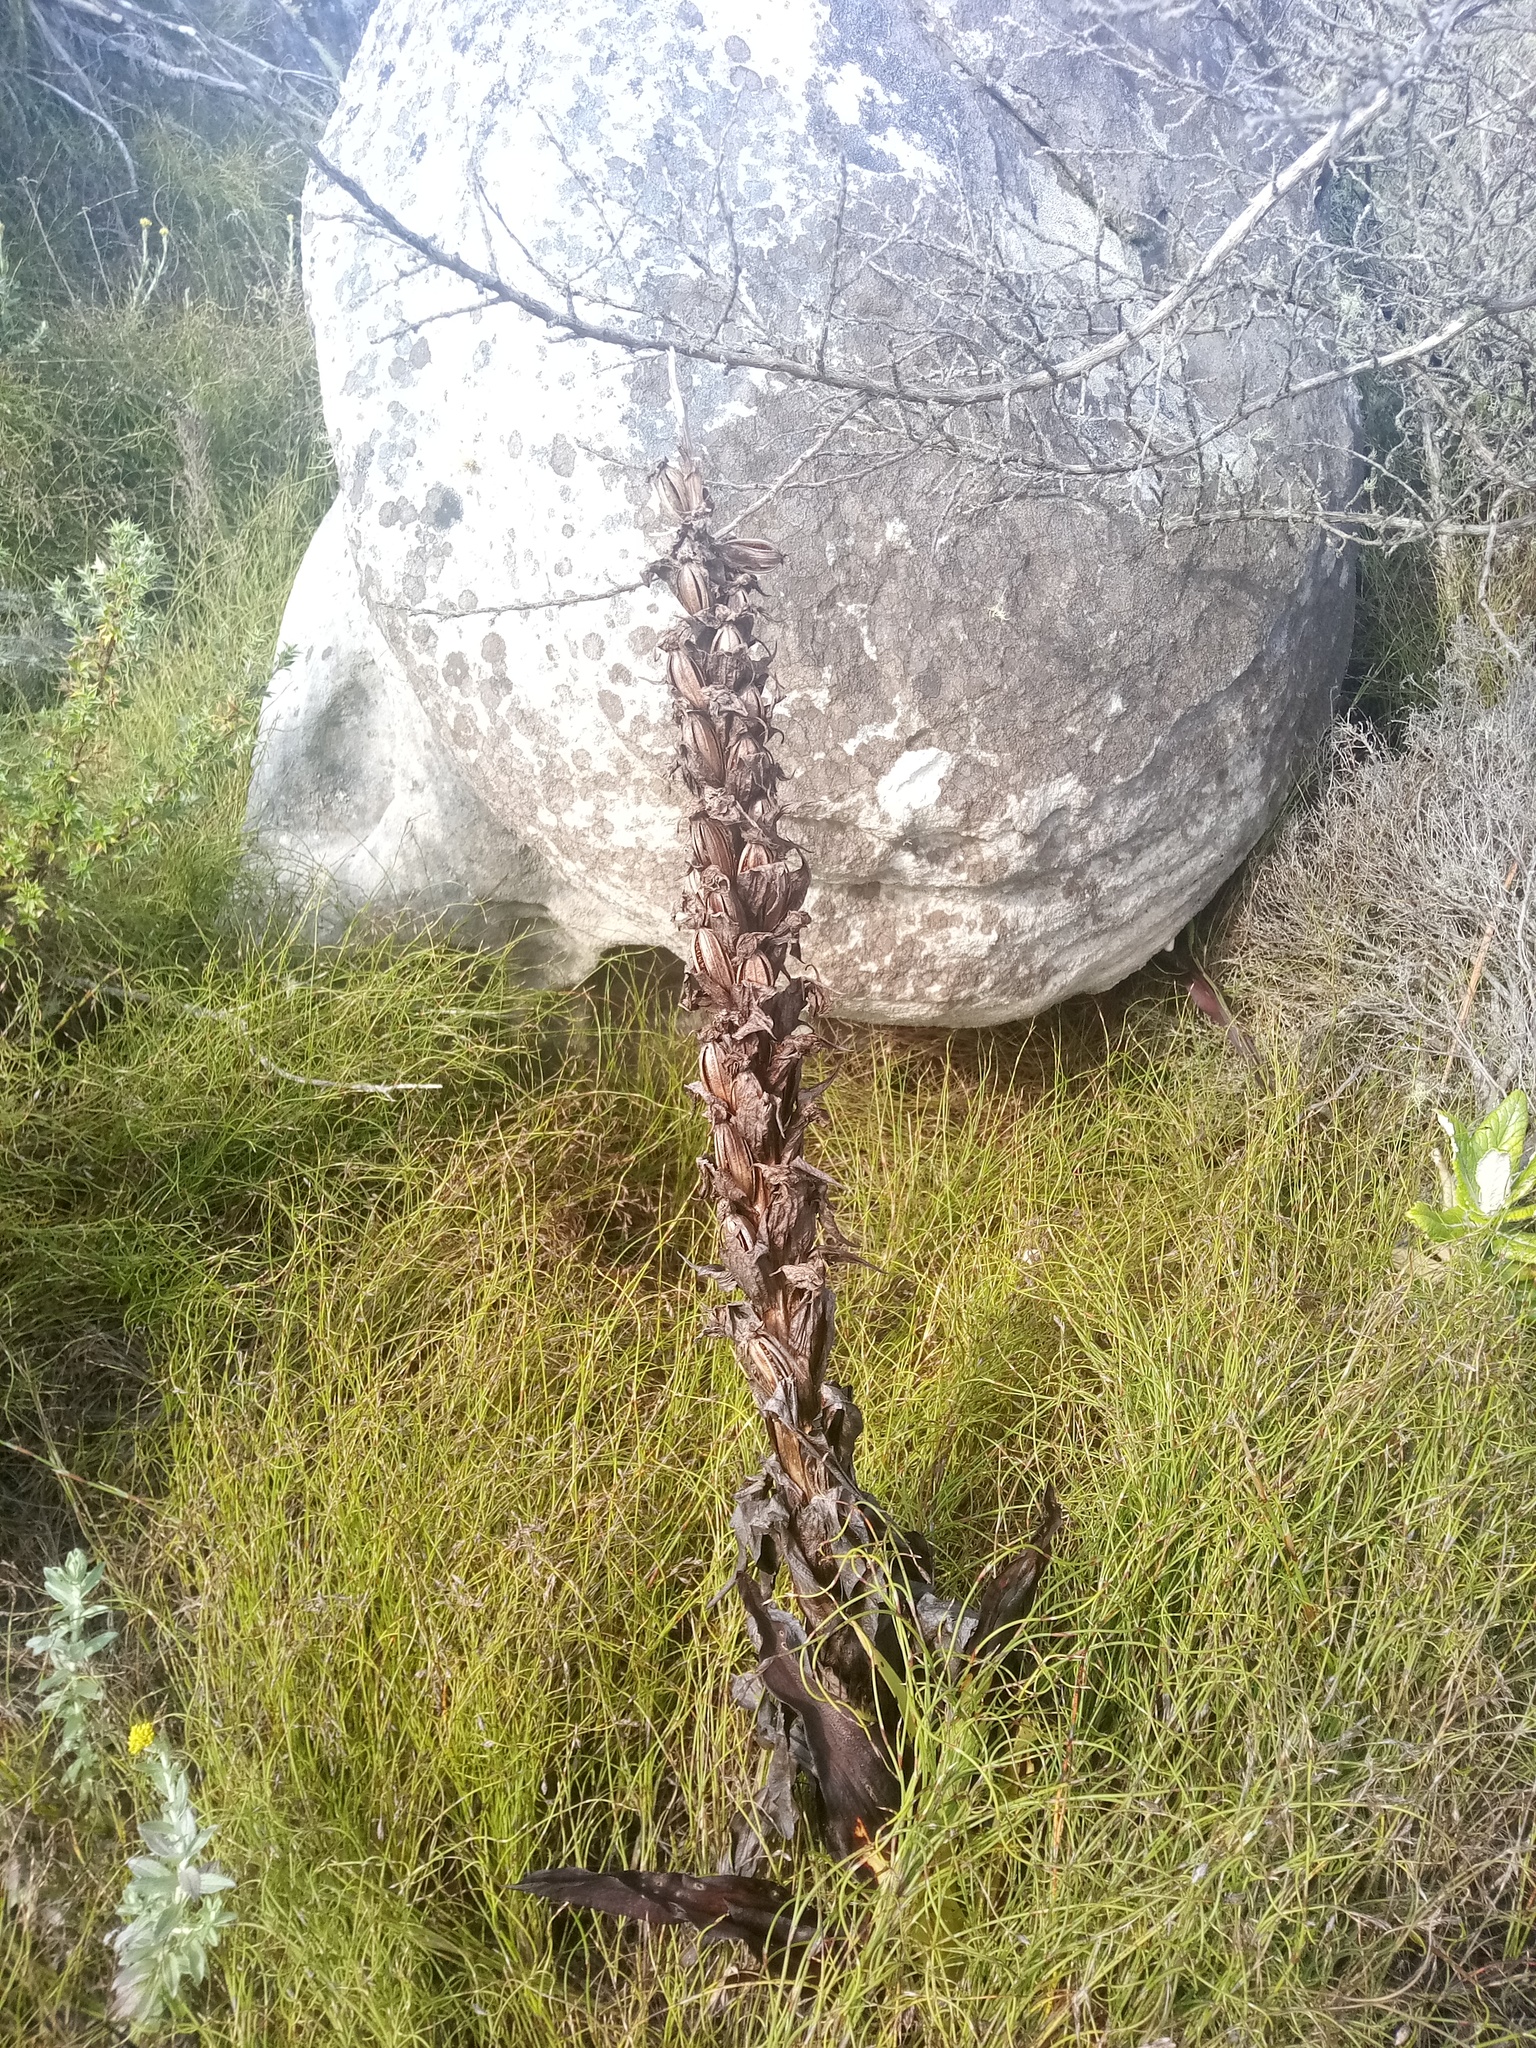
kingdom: Plantae
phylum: Tracheophyta
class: Liliopsida
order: Asparagales
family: Orchidaceae
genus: Disa
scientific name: Disa cornuta
